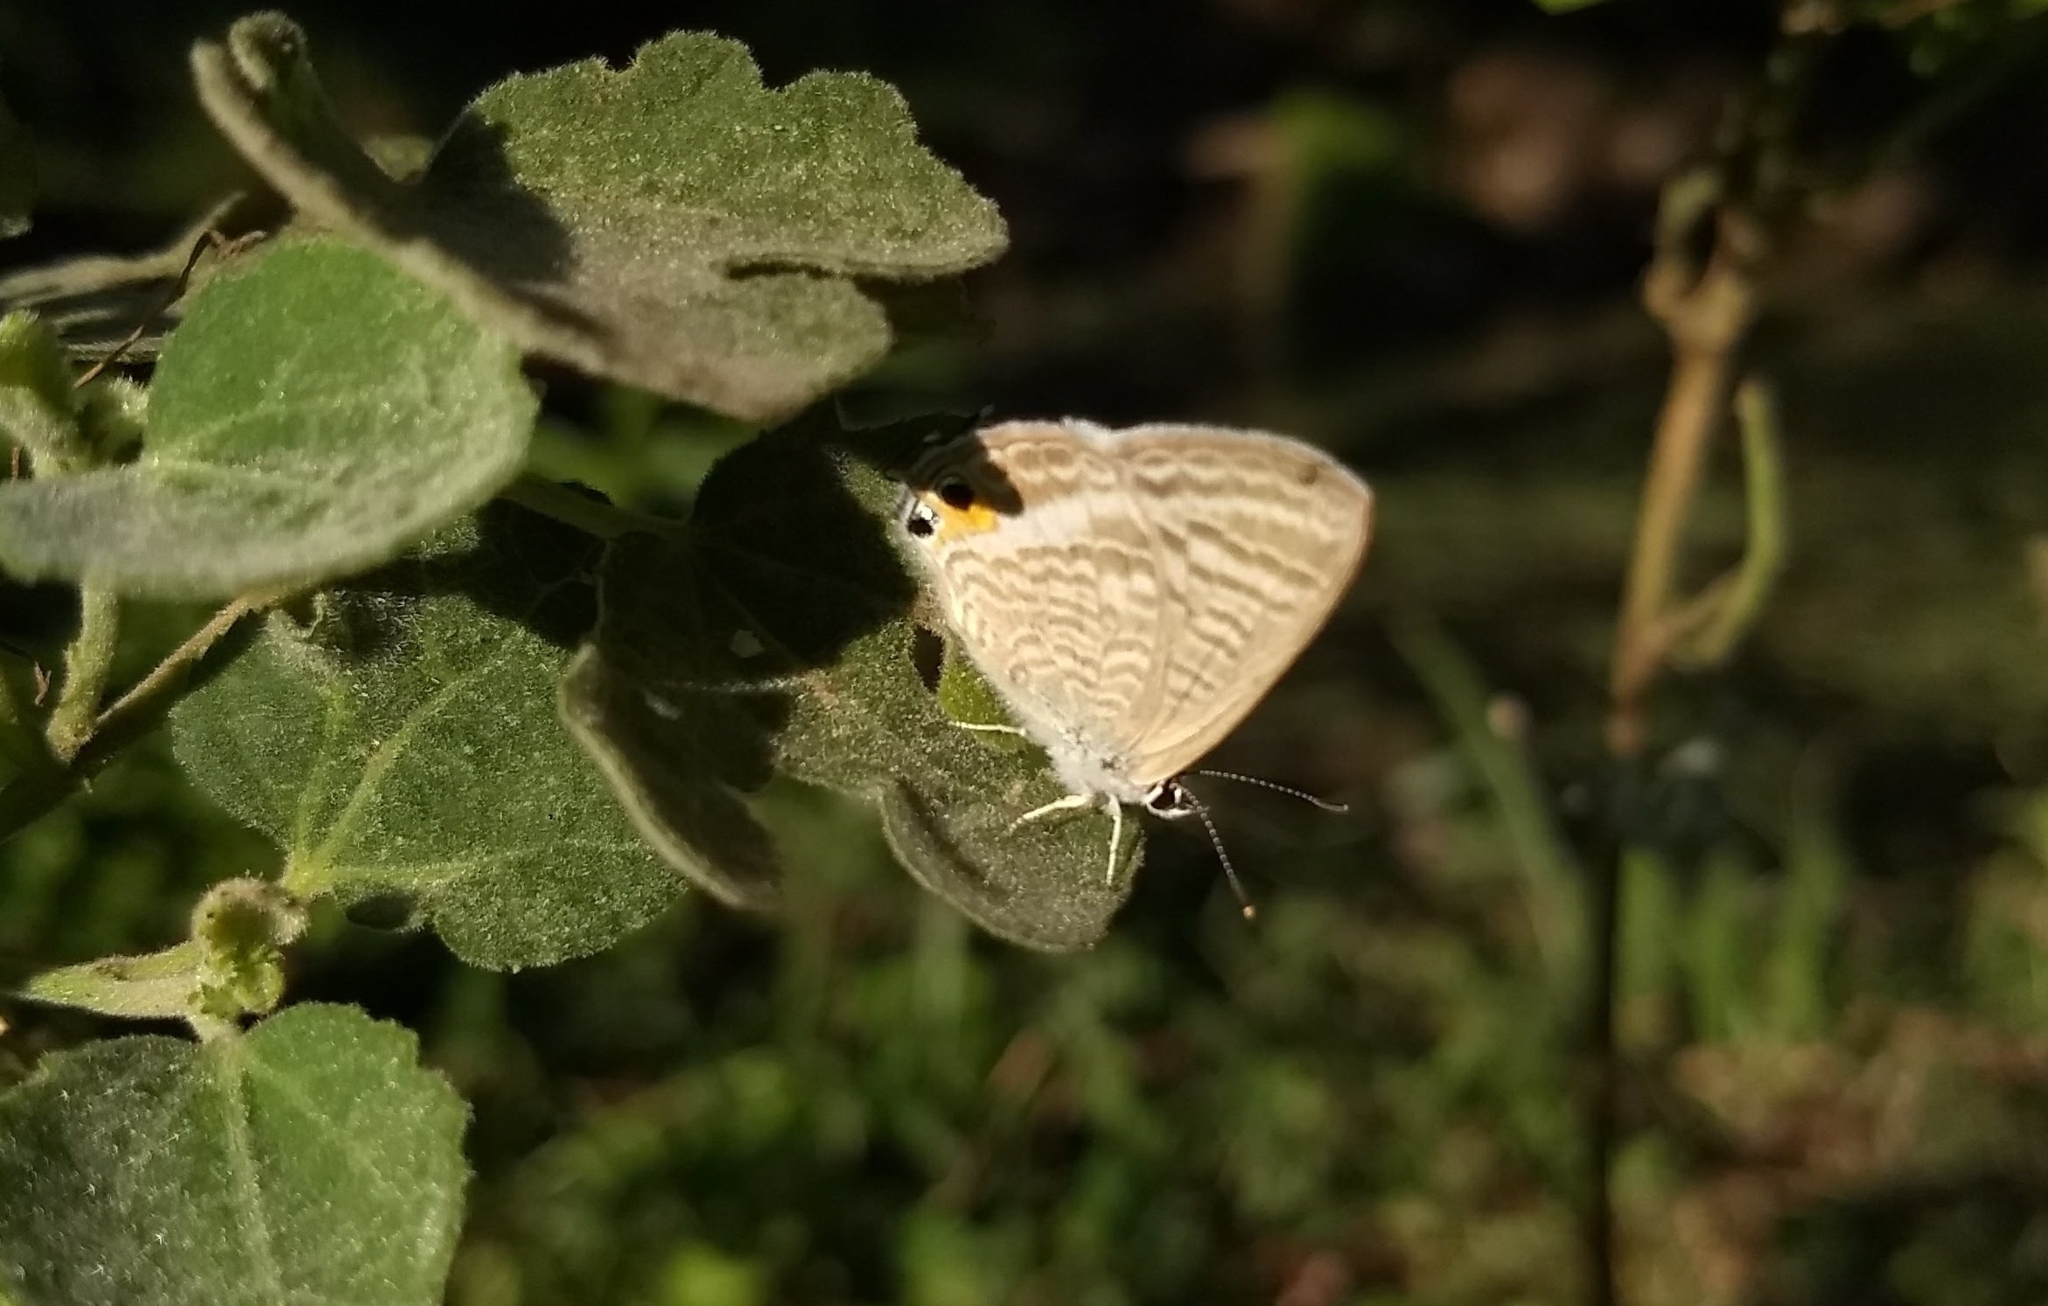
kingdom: Animalia
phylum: Arthropoda
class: Insecta
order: Lepidoptera
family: Lycaenidae
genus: Lampides
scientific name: Lampides boeticus
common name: Long-tailed blue
